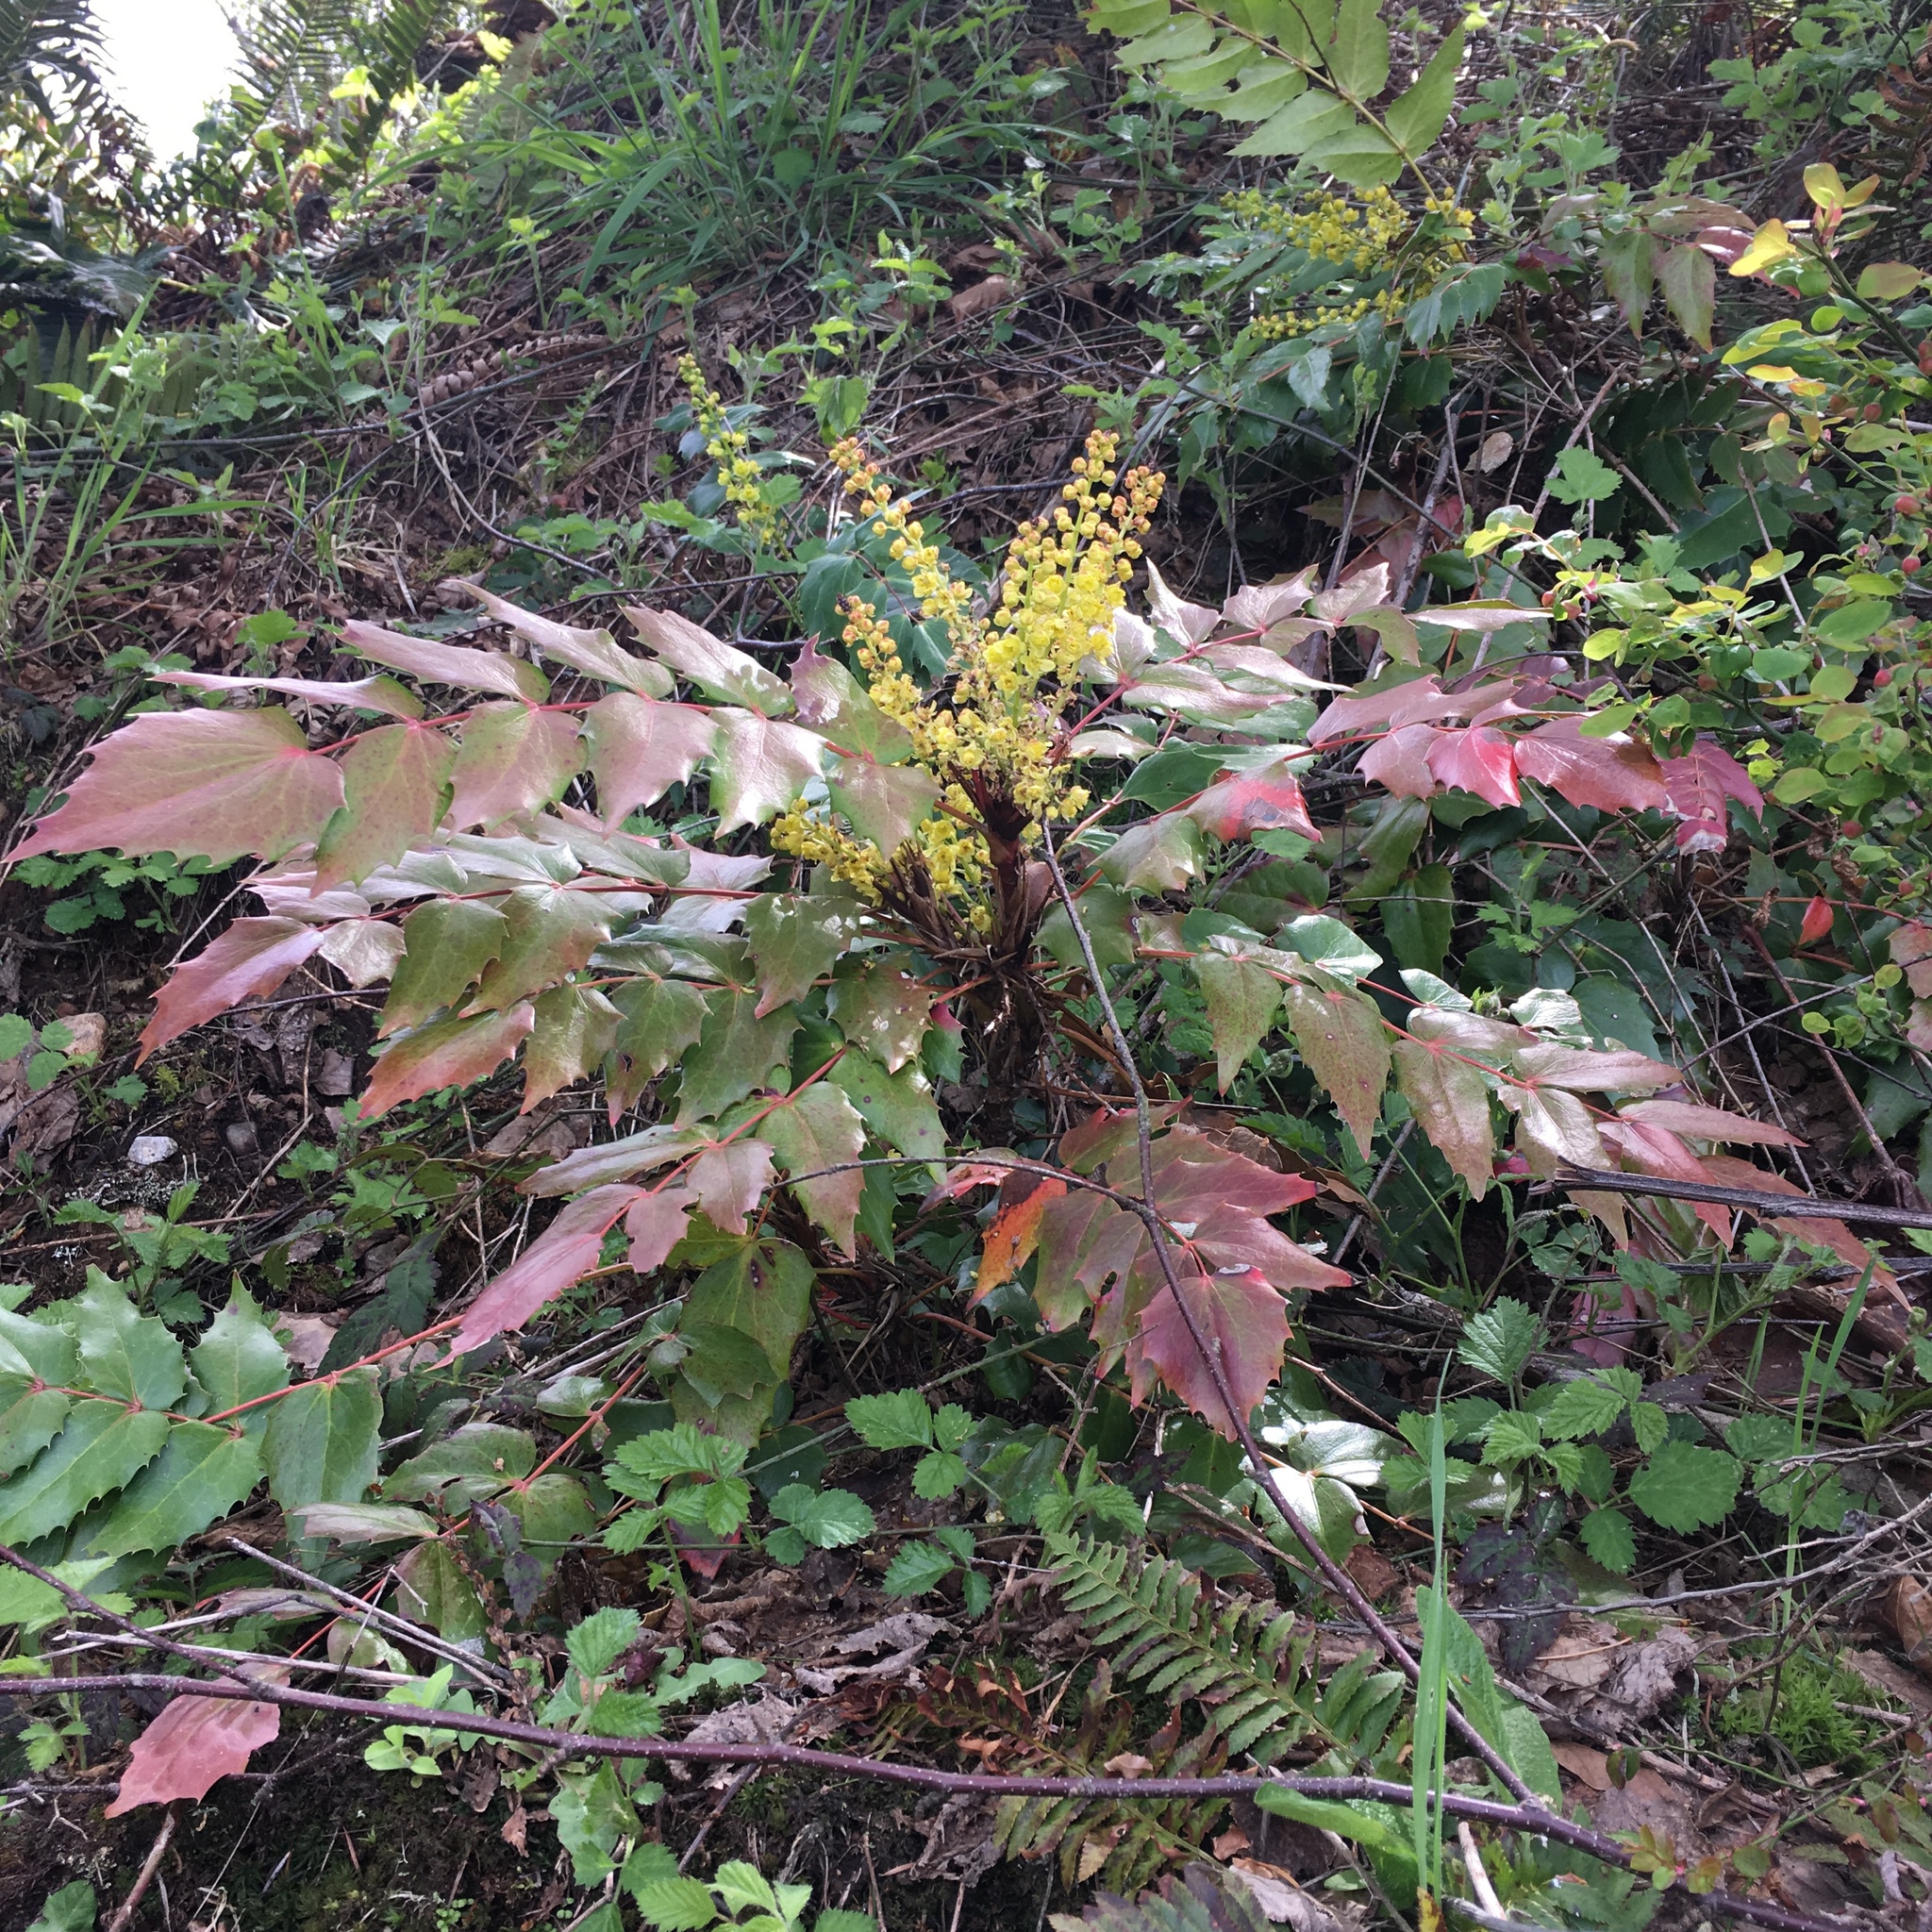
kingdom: Plantae
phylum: Tracheophyta
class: Magnoliopsida
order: Ranunculales
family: Berberidaceae
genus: Mahonia
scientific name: Mahonia nervosa
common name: Cascade oregon-grape
